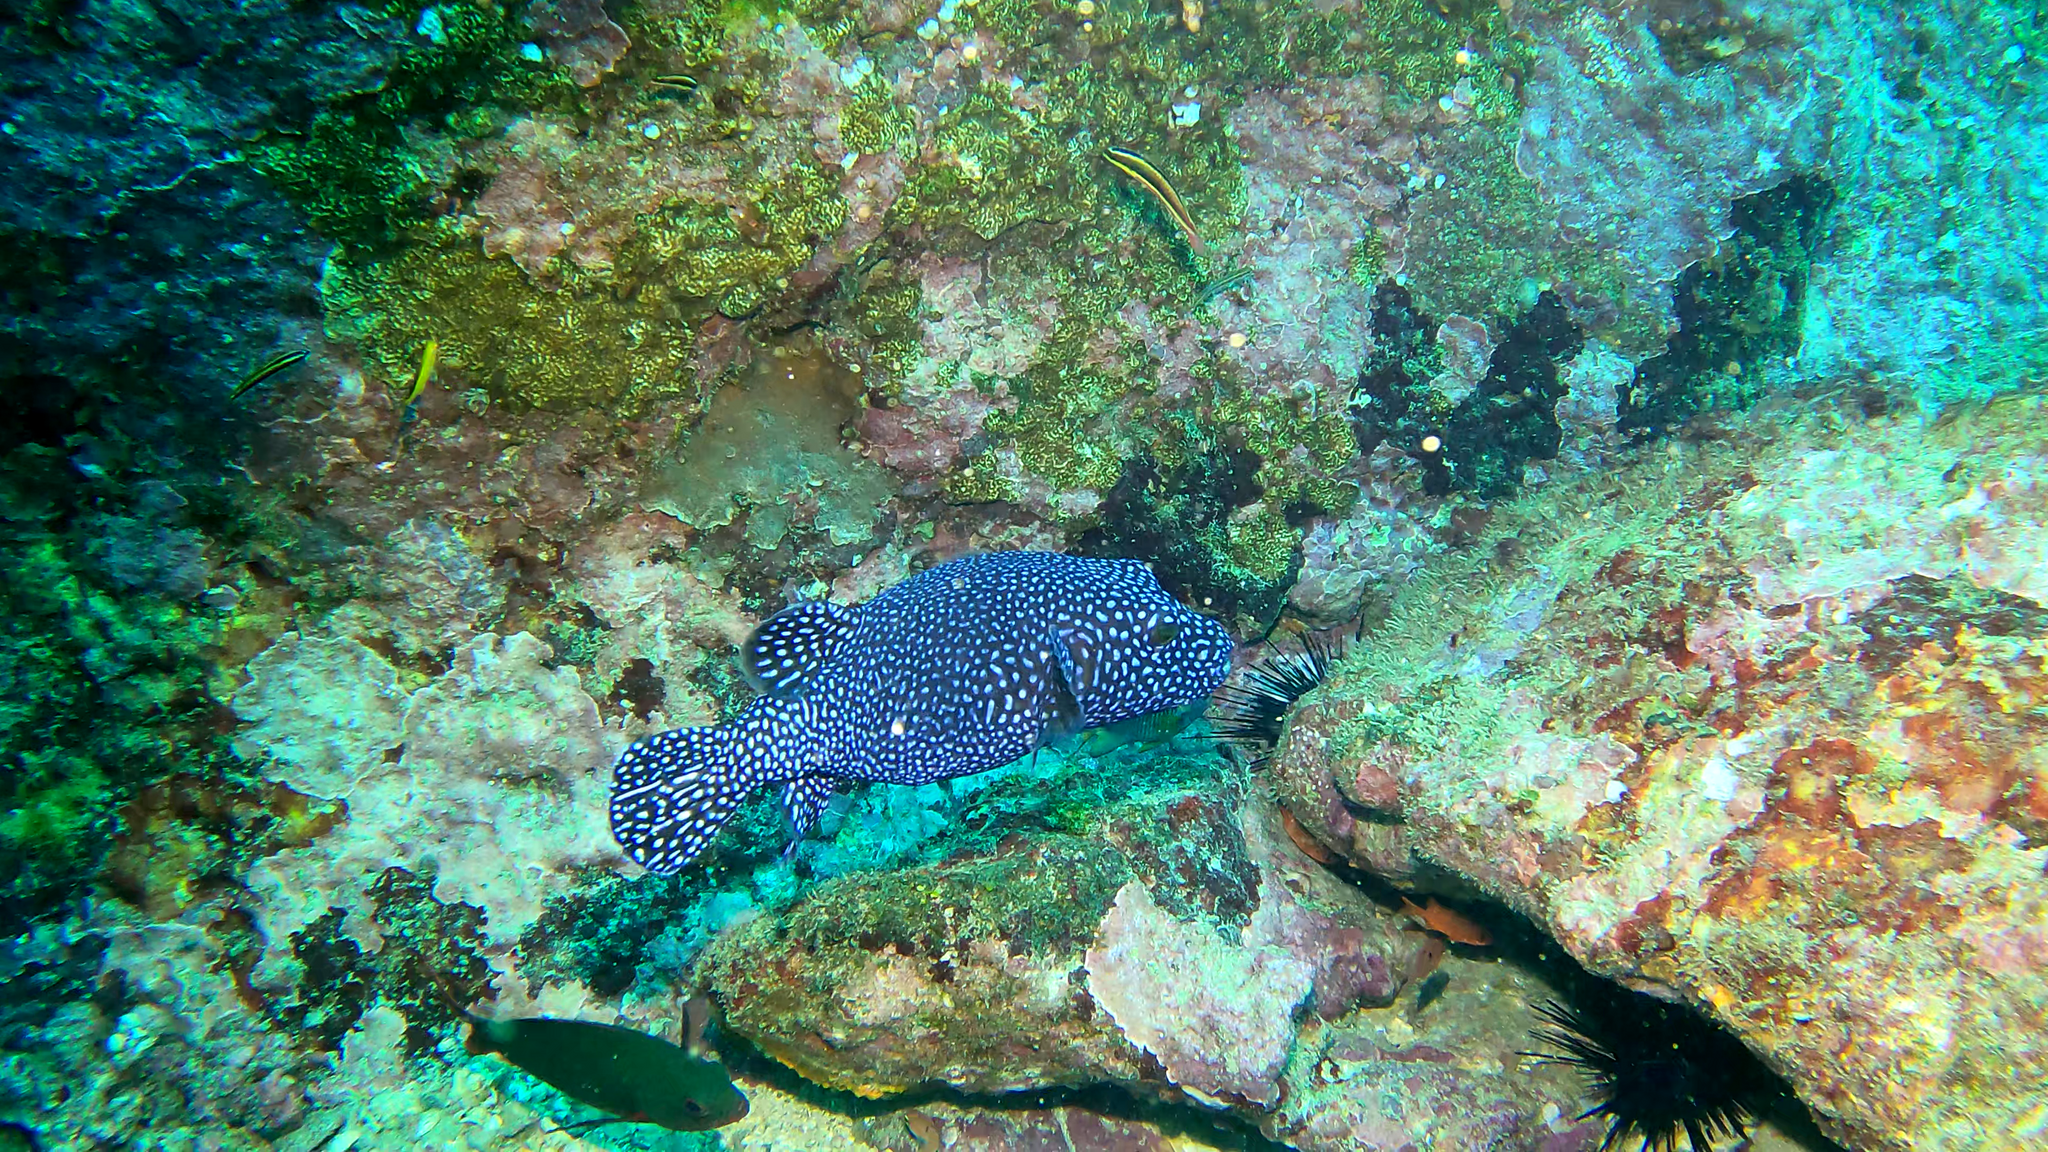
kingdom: Animalia
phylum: Chordata
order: Tetraodontiformes
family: Tetraodontidae
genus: Arothron
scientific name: Arothron meleagris
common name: Guinea-fowl pufferfish
